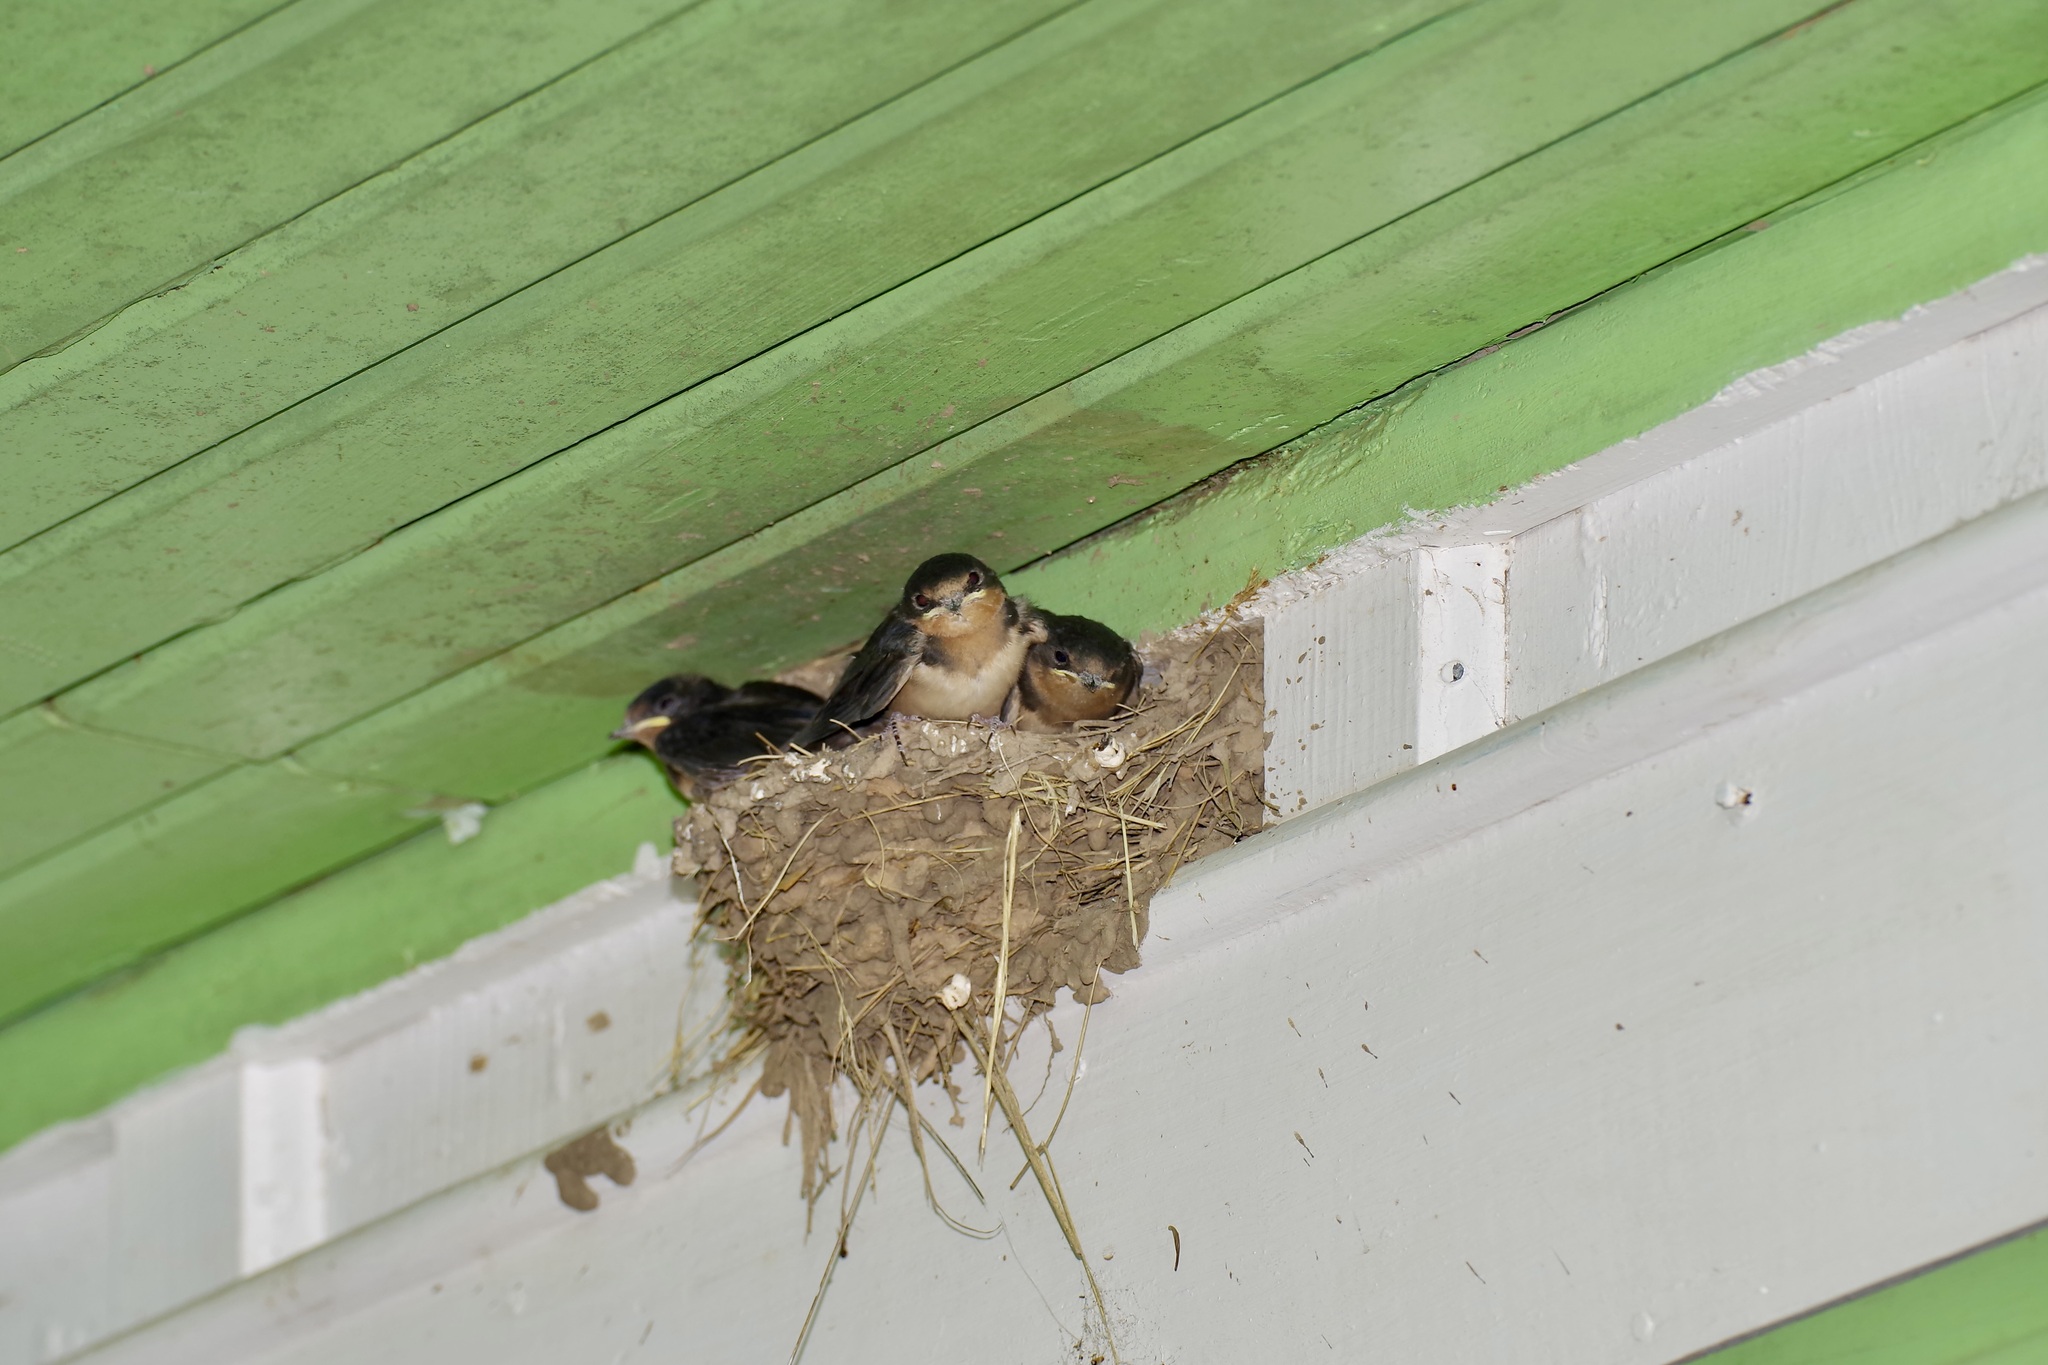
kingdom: Animalia
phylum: Chordata
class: Aves
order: Passeriformes
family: Hirundinidae
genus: Hirundo
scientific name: Hirundo rustica
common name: Barn swallow
